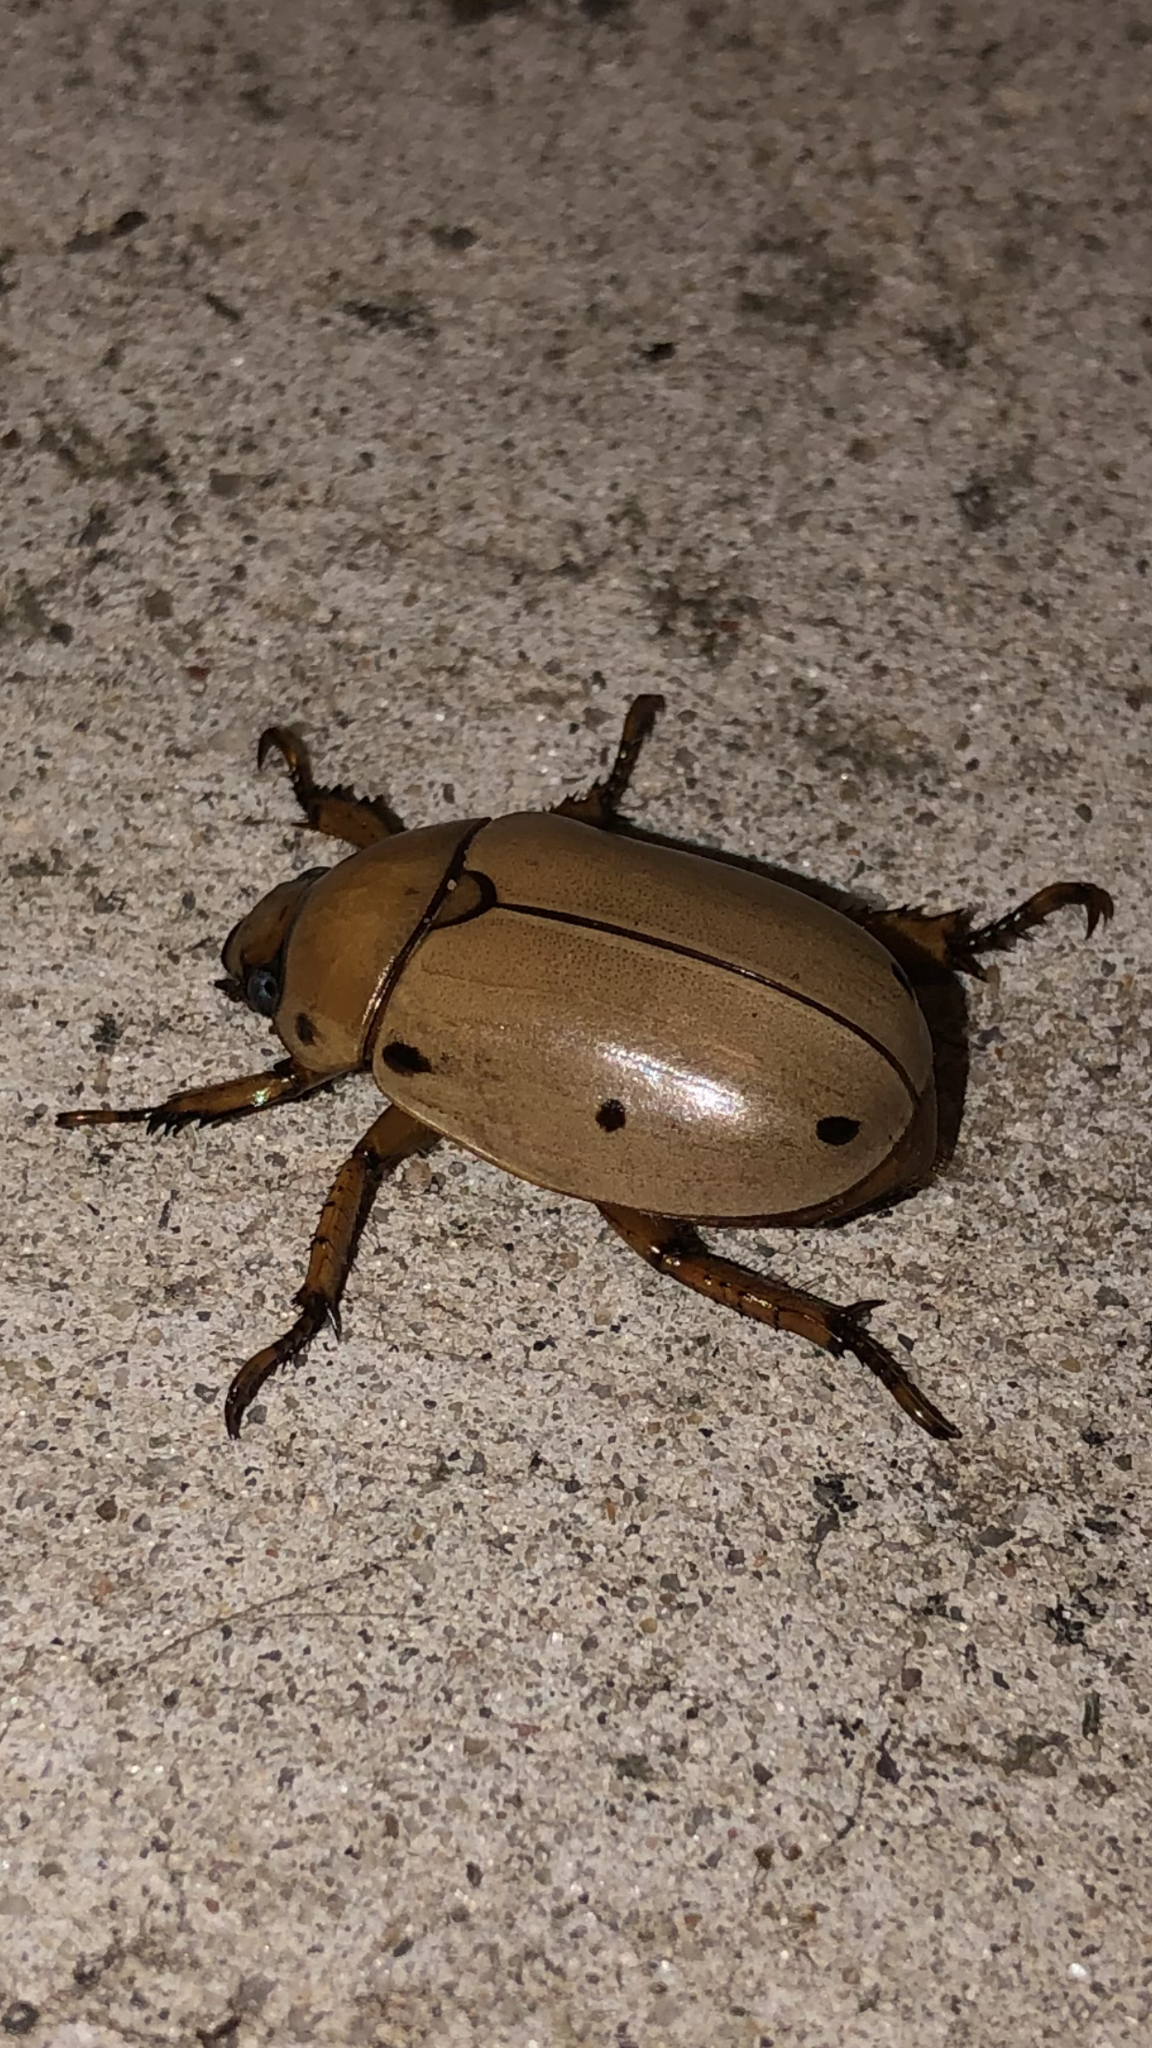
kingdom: Animalia
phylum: Arthropoda
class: Insecta
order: Coleoptera
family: Scarabaeidae
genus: Pelidnota
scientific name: Pelidnota punctata
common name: Grapevine beetle
